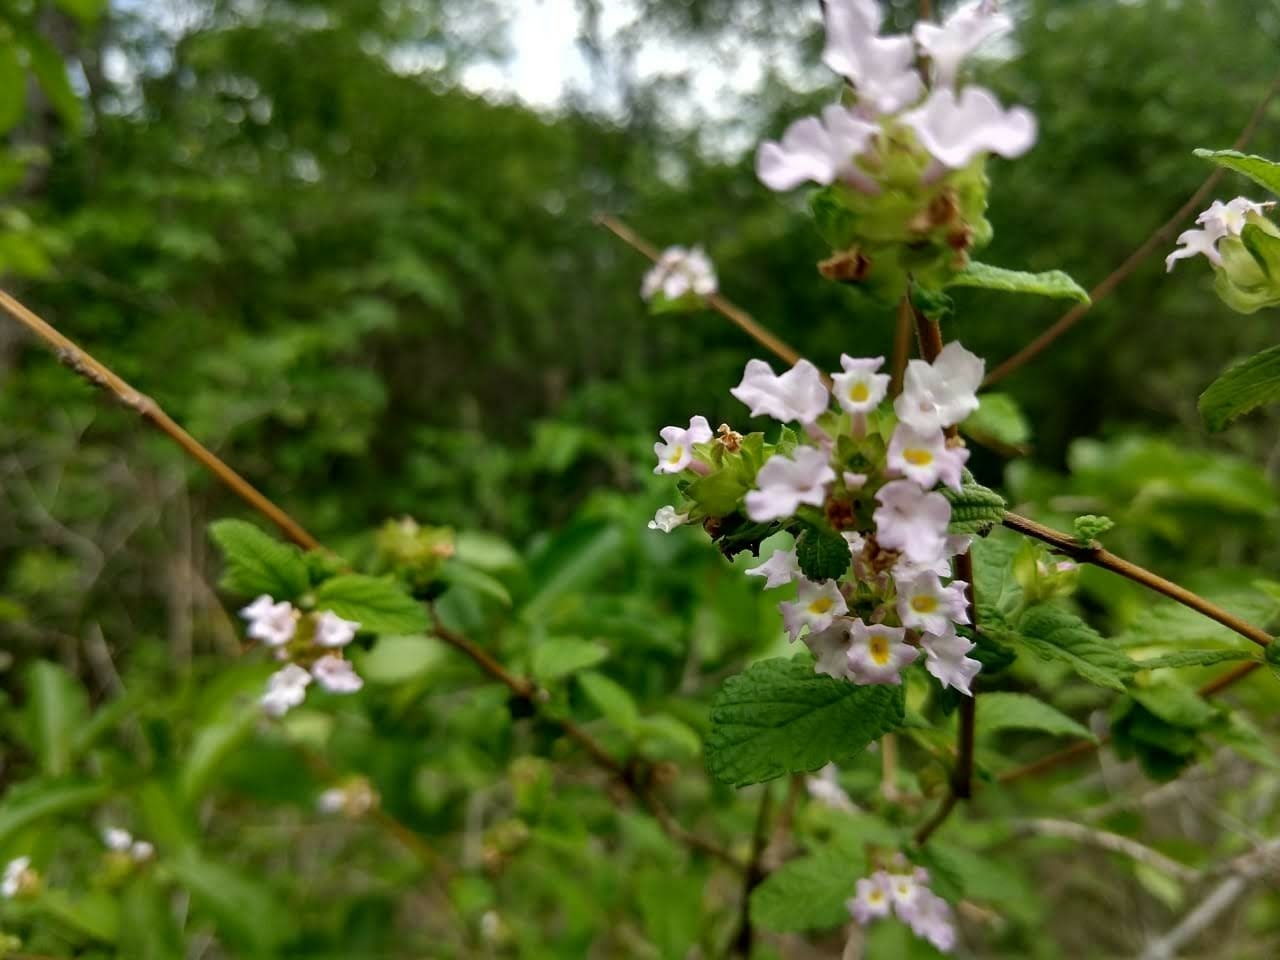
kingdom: Plantae
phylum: Tracheophyta
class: Magnoliopsida
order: Lamiales
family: Verbenaceae
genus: Lantana
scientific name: Lantana fucata
